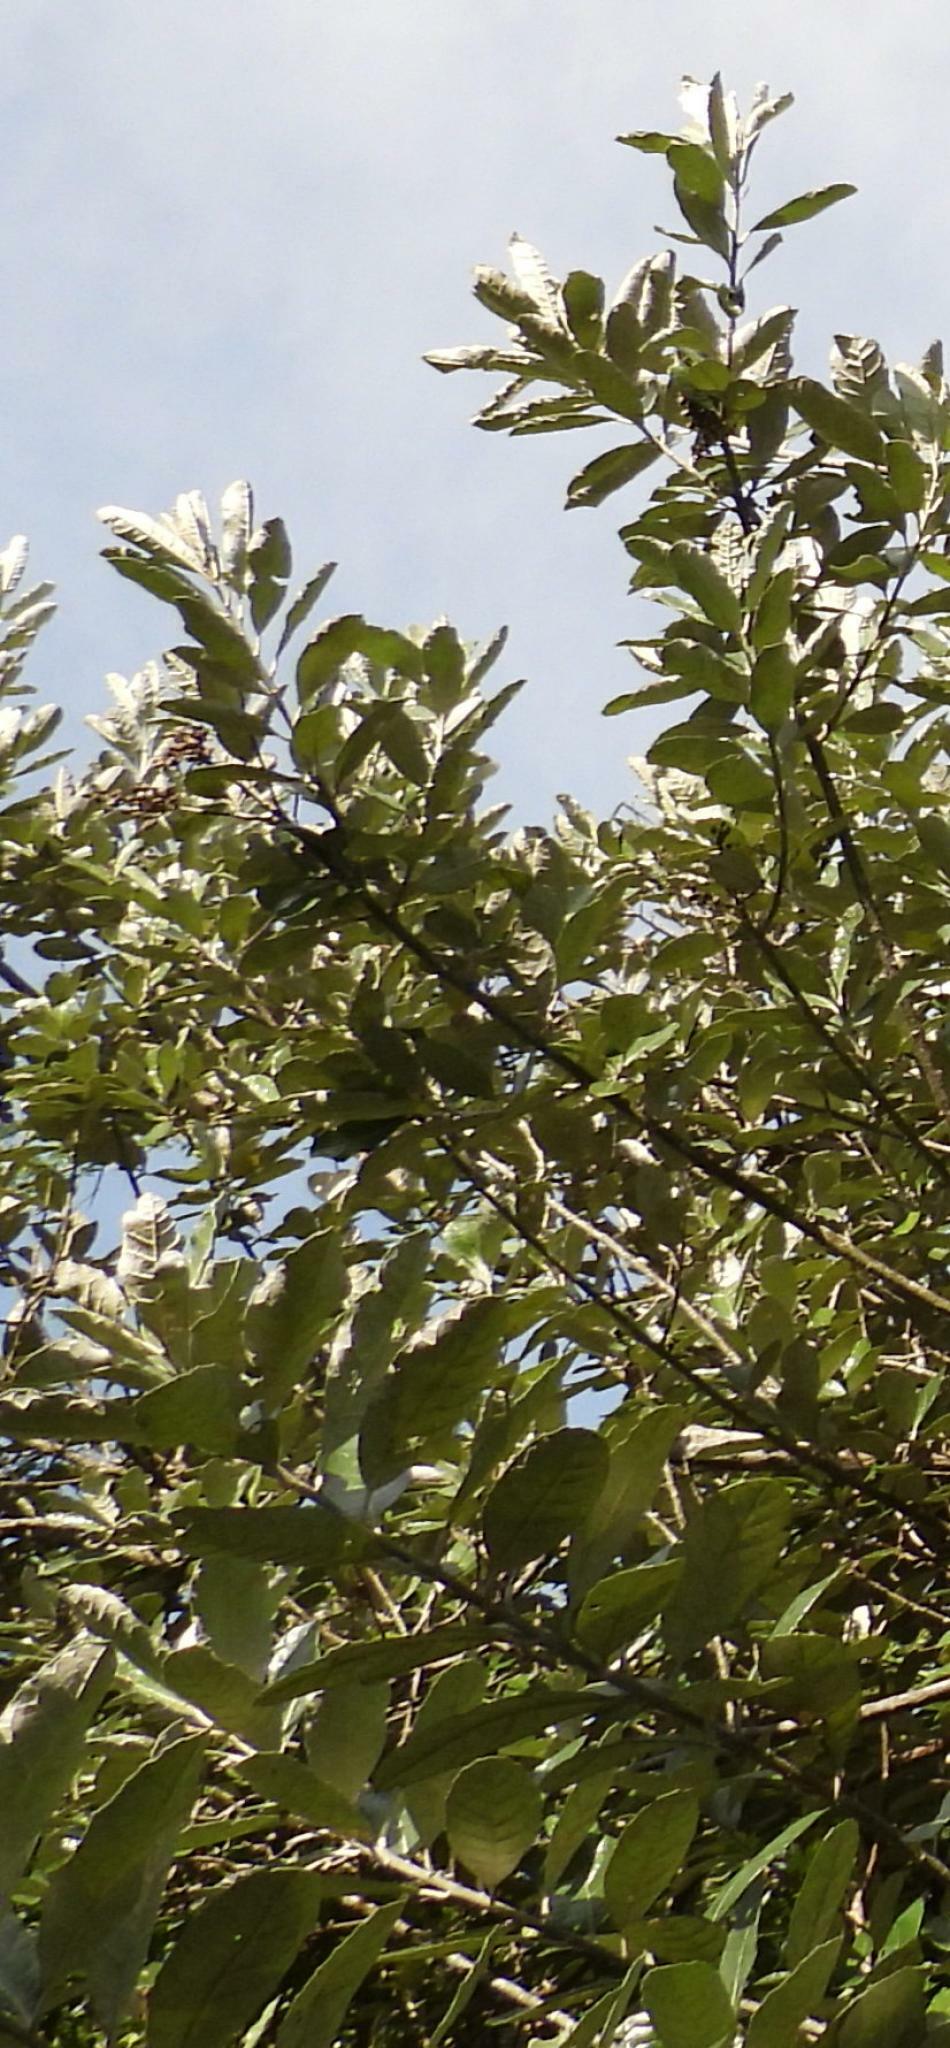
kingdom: Plantae
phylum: Tracheophyta
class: Magnoliopsida
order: Asterales
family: Asteraceae
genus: Brachylaena
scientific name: Brachylaena discolor
